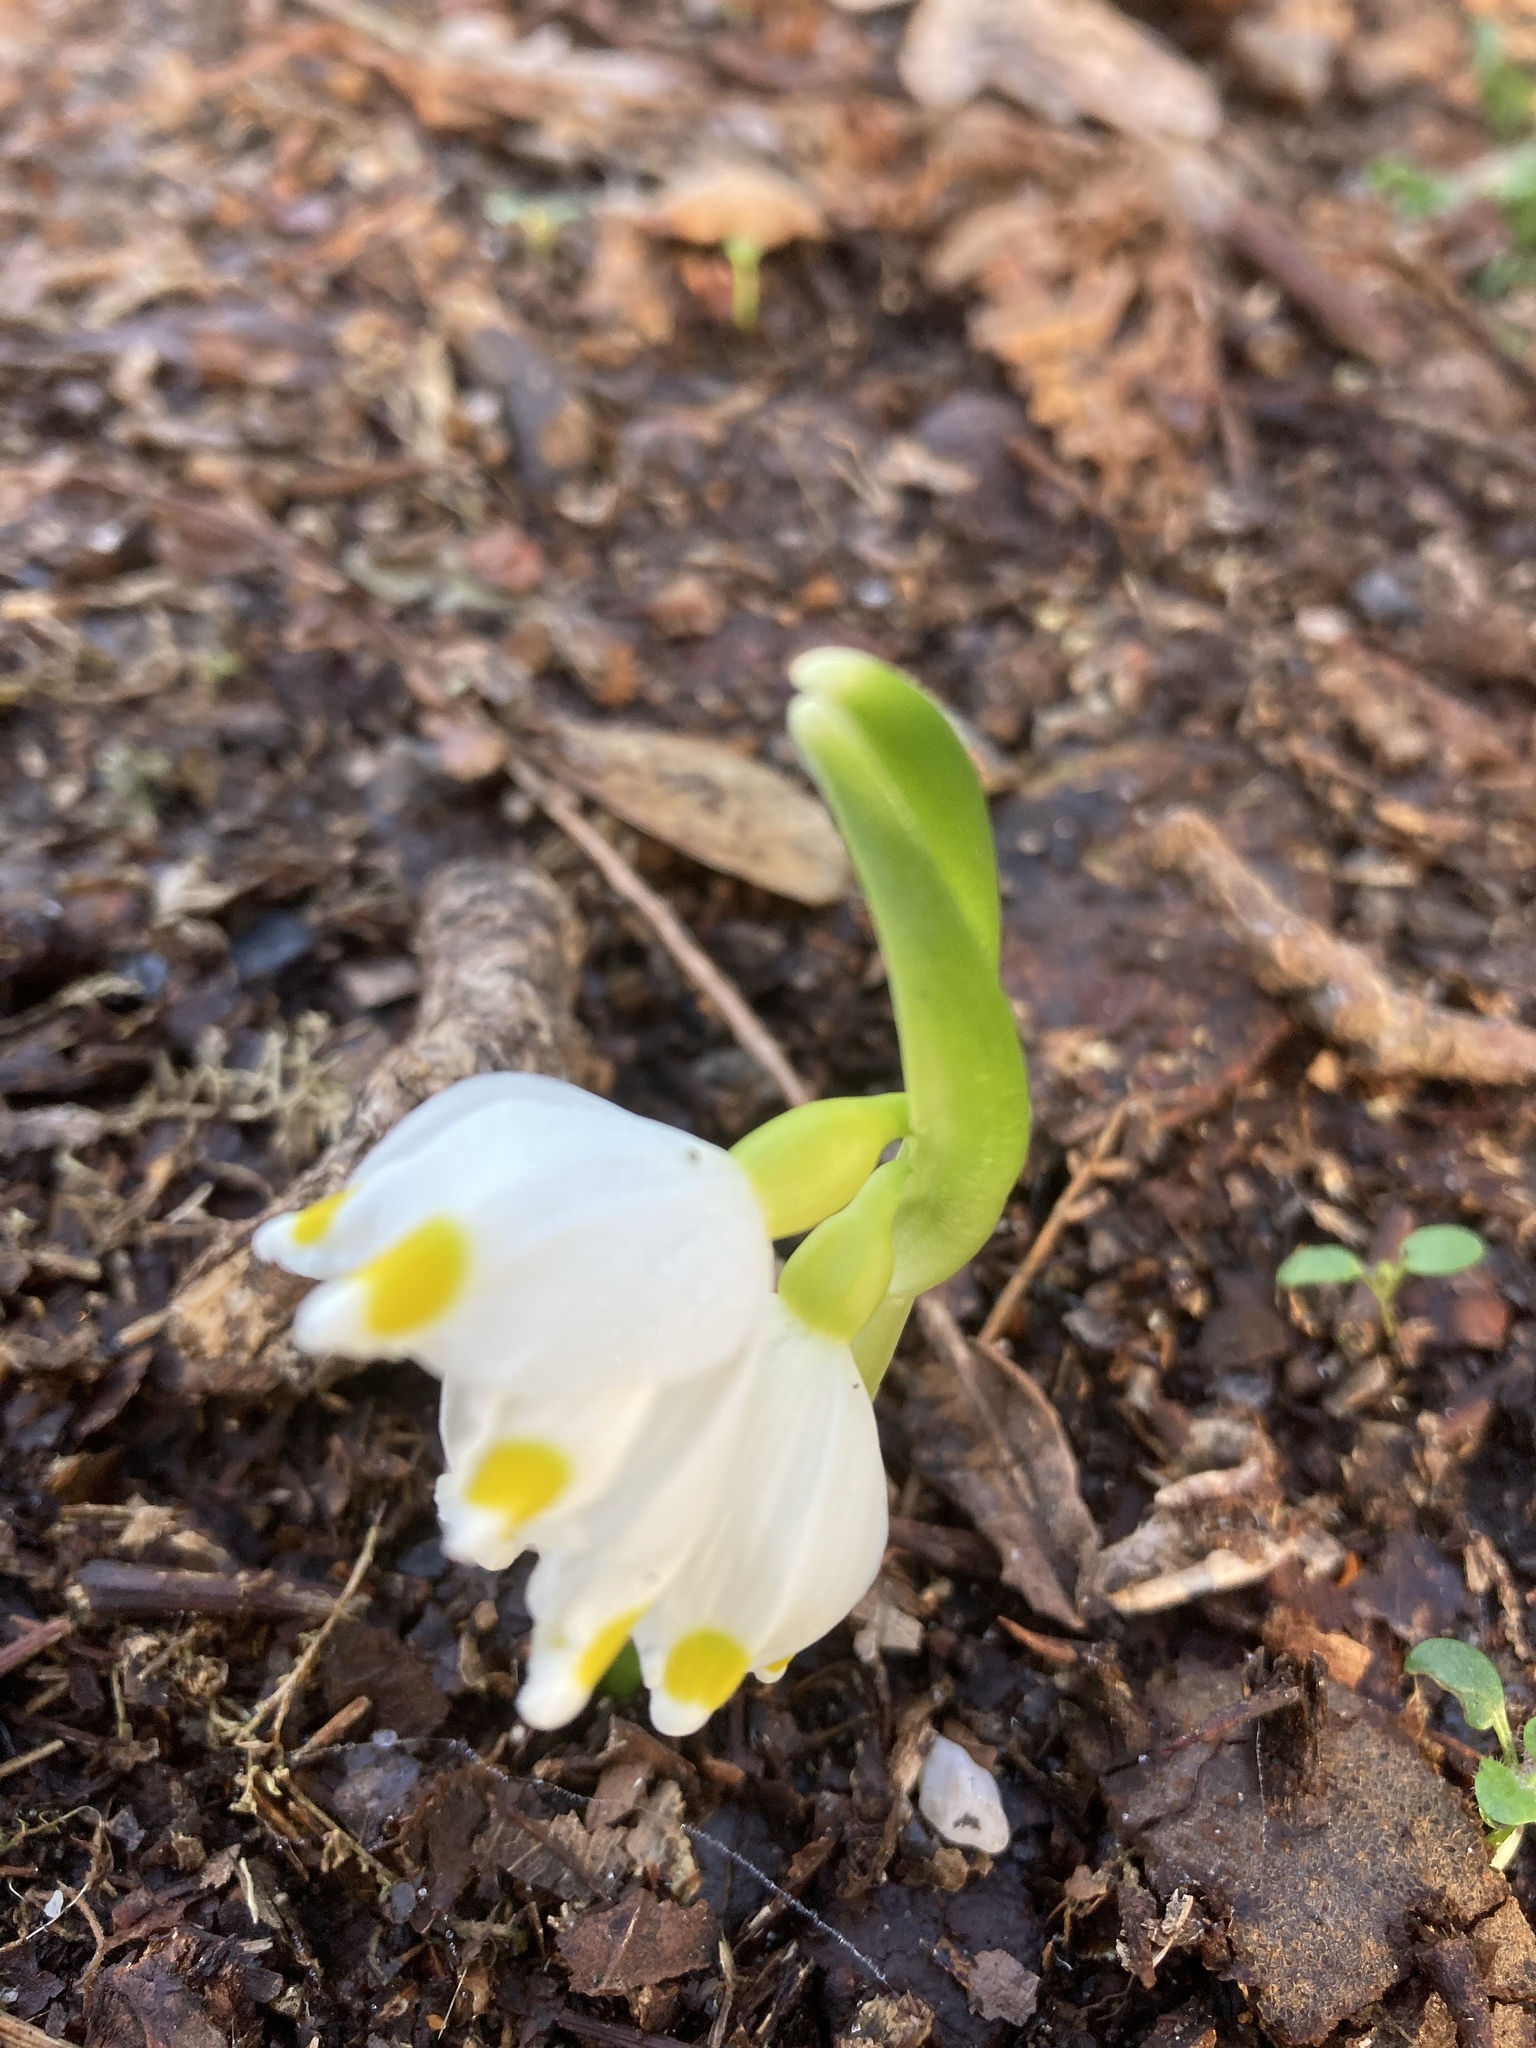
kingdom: Plantae
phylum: Tracheophyta
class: Liliopsida
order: Asparagales
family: Amaryllidaceae
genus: Leucojum
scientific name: Leucojum vernum
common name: Spring snowflake
